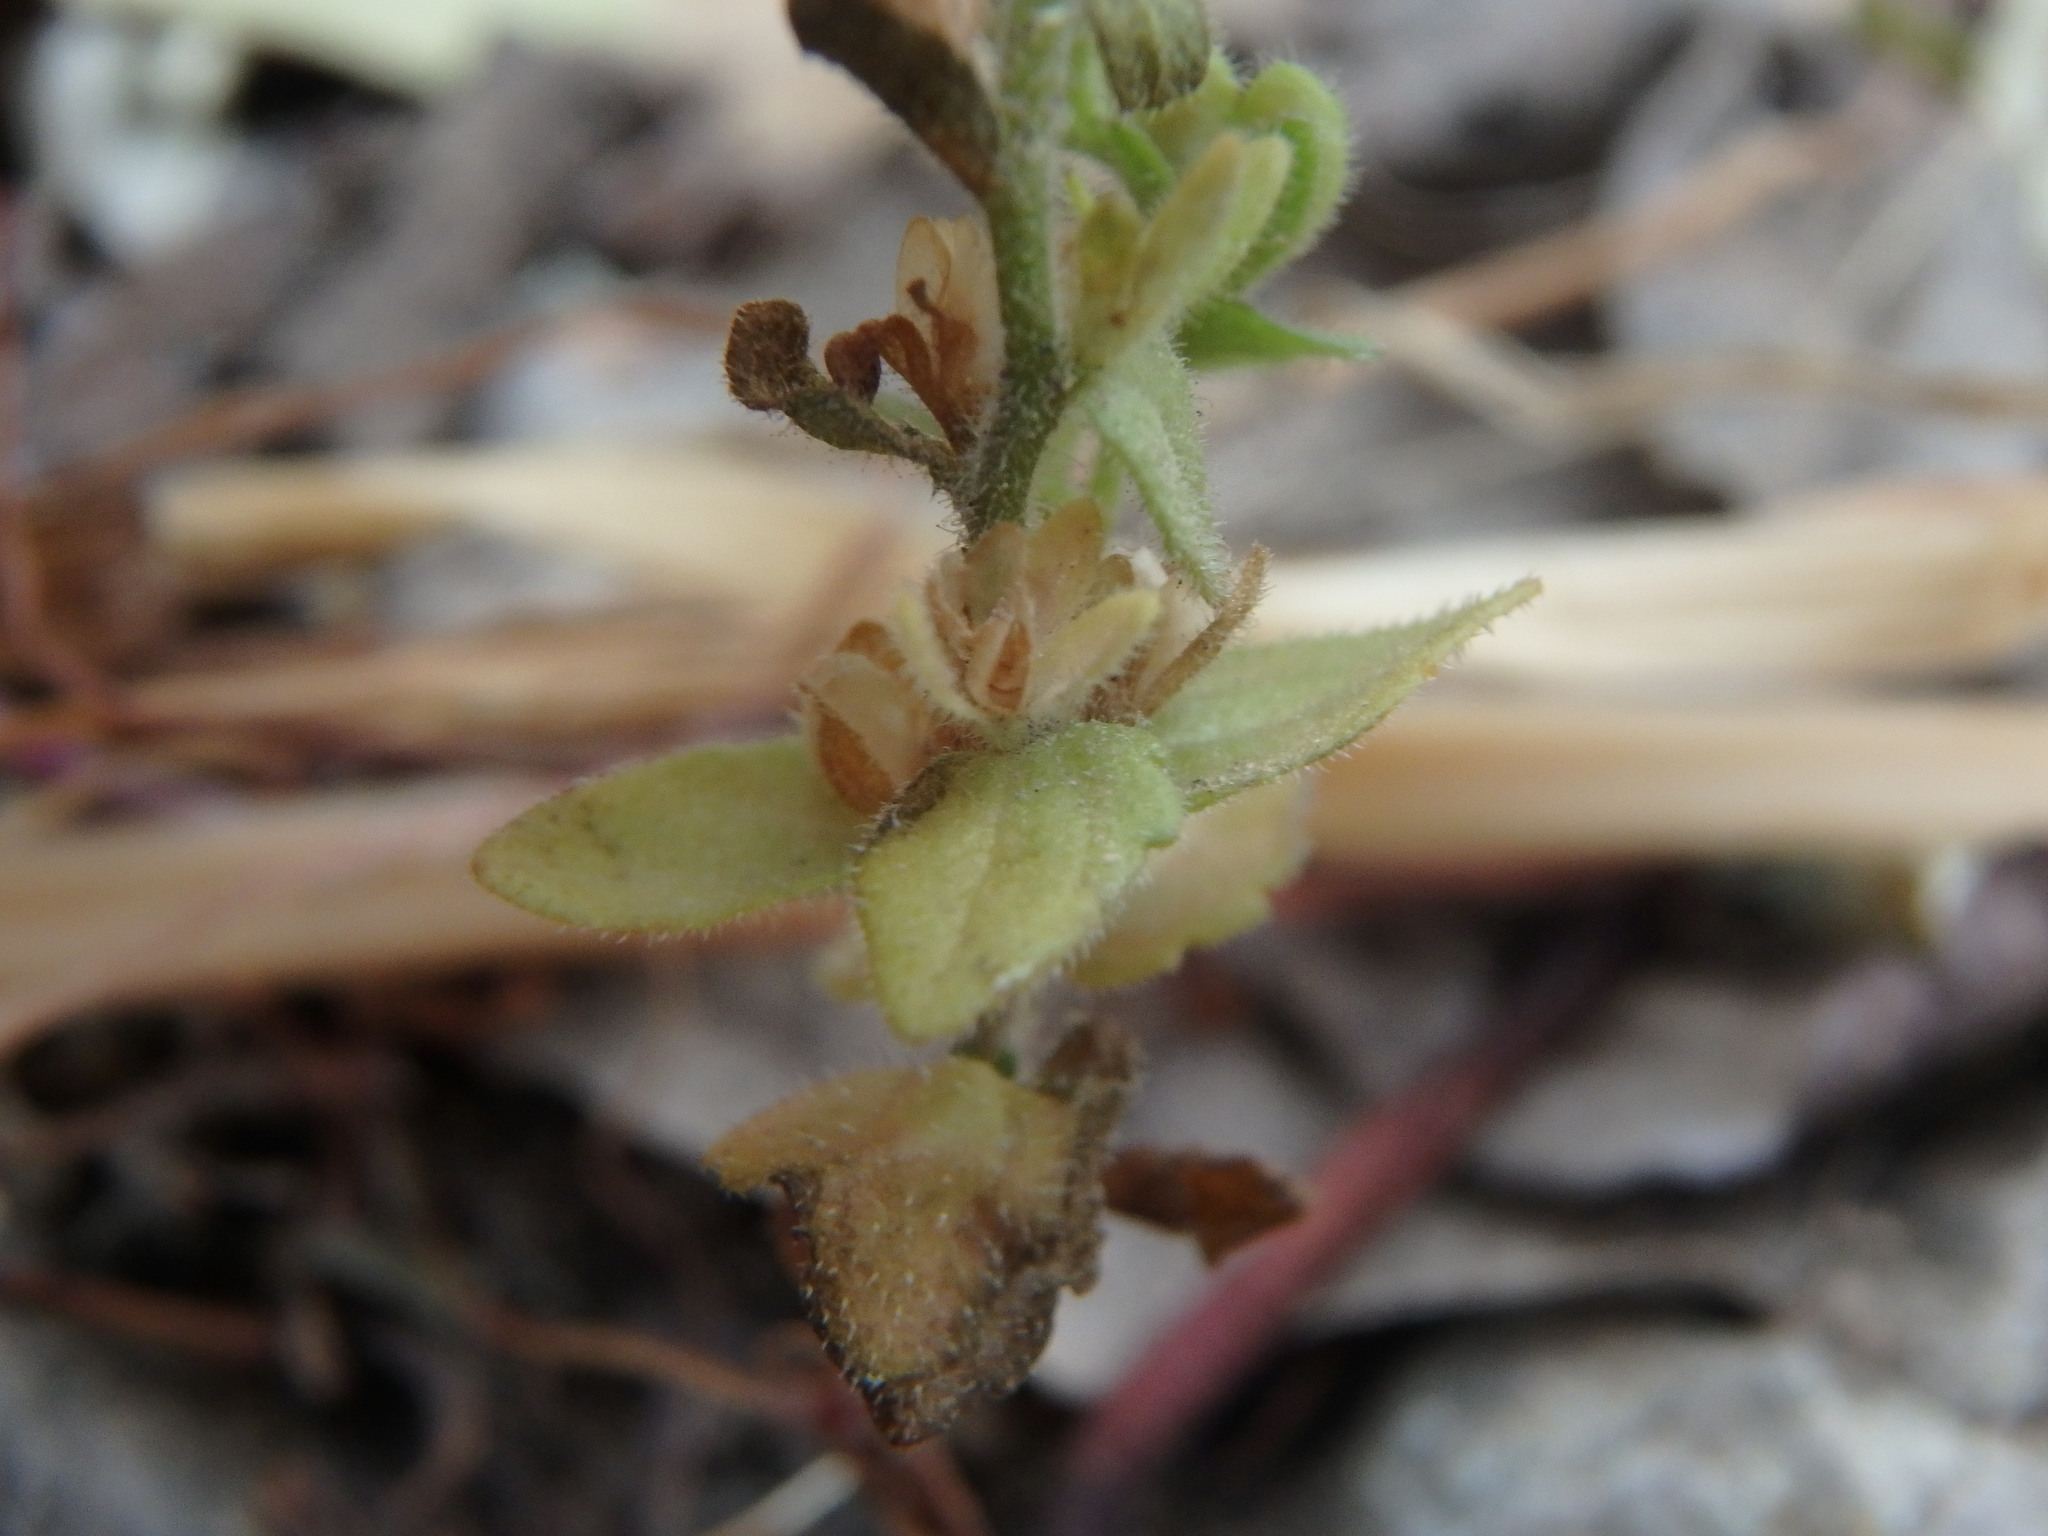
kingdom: Plantae
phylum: Tracheophyta
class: Magnoliopsida
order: Lamiales
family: Plantaginaceae
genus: Veronica
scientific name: Veronica arvensis
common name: Corn speedwell
